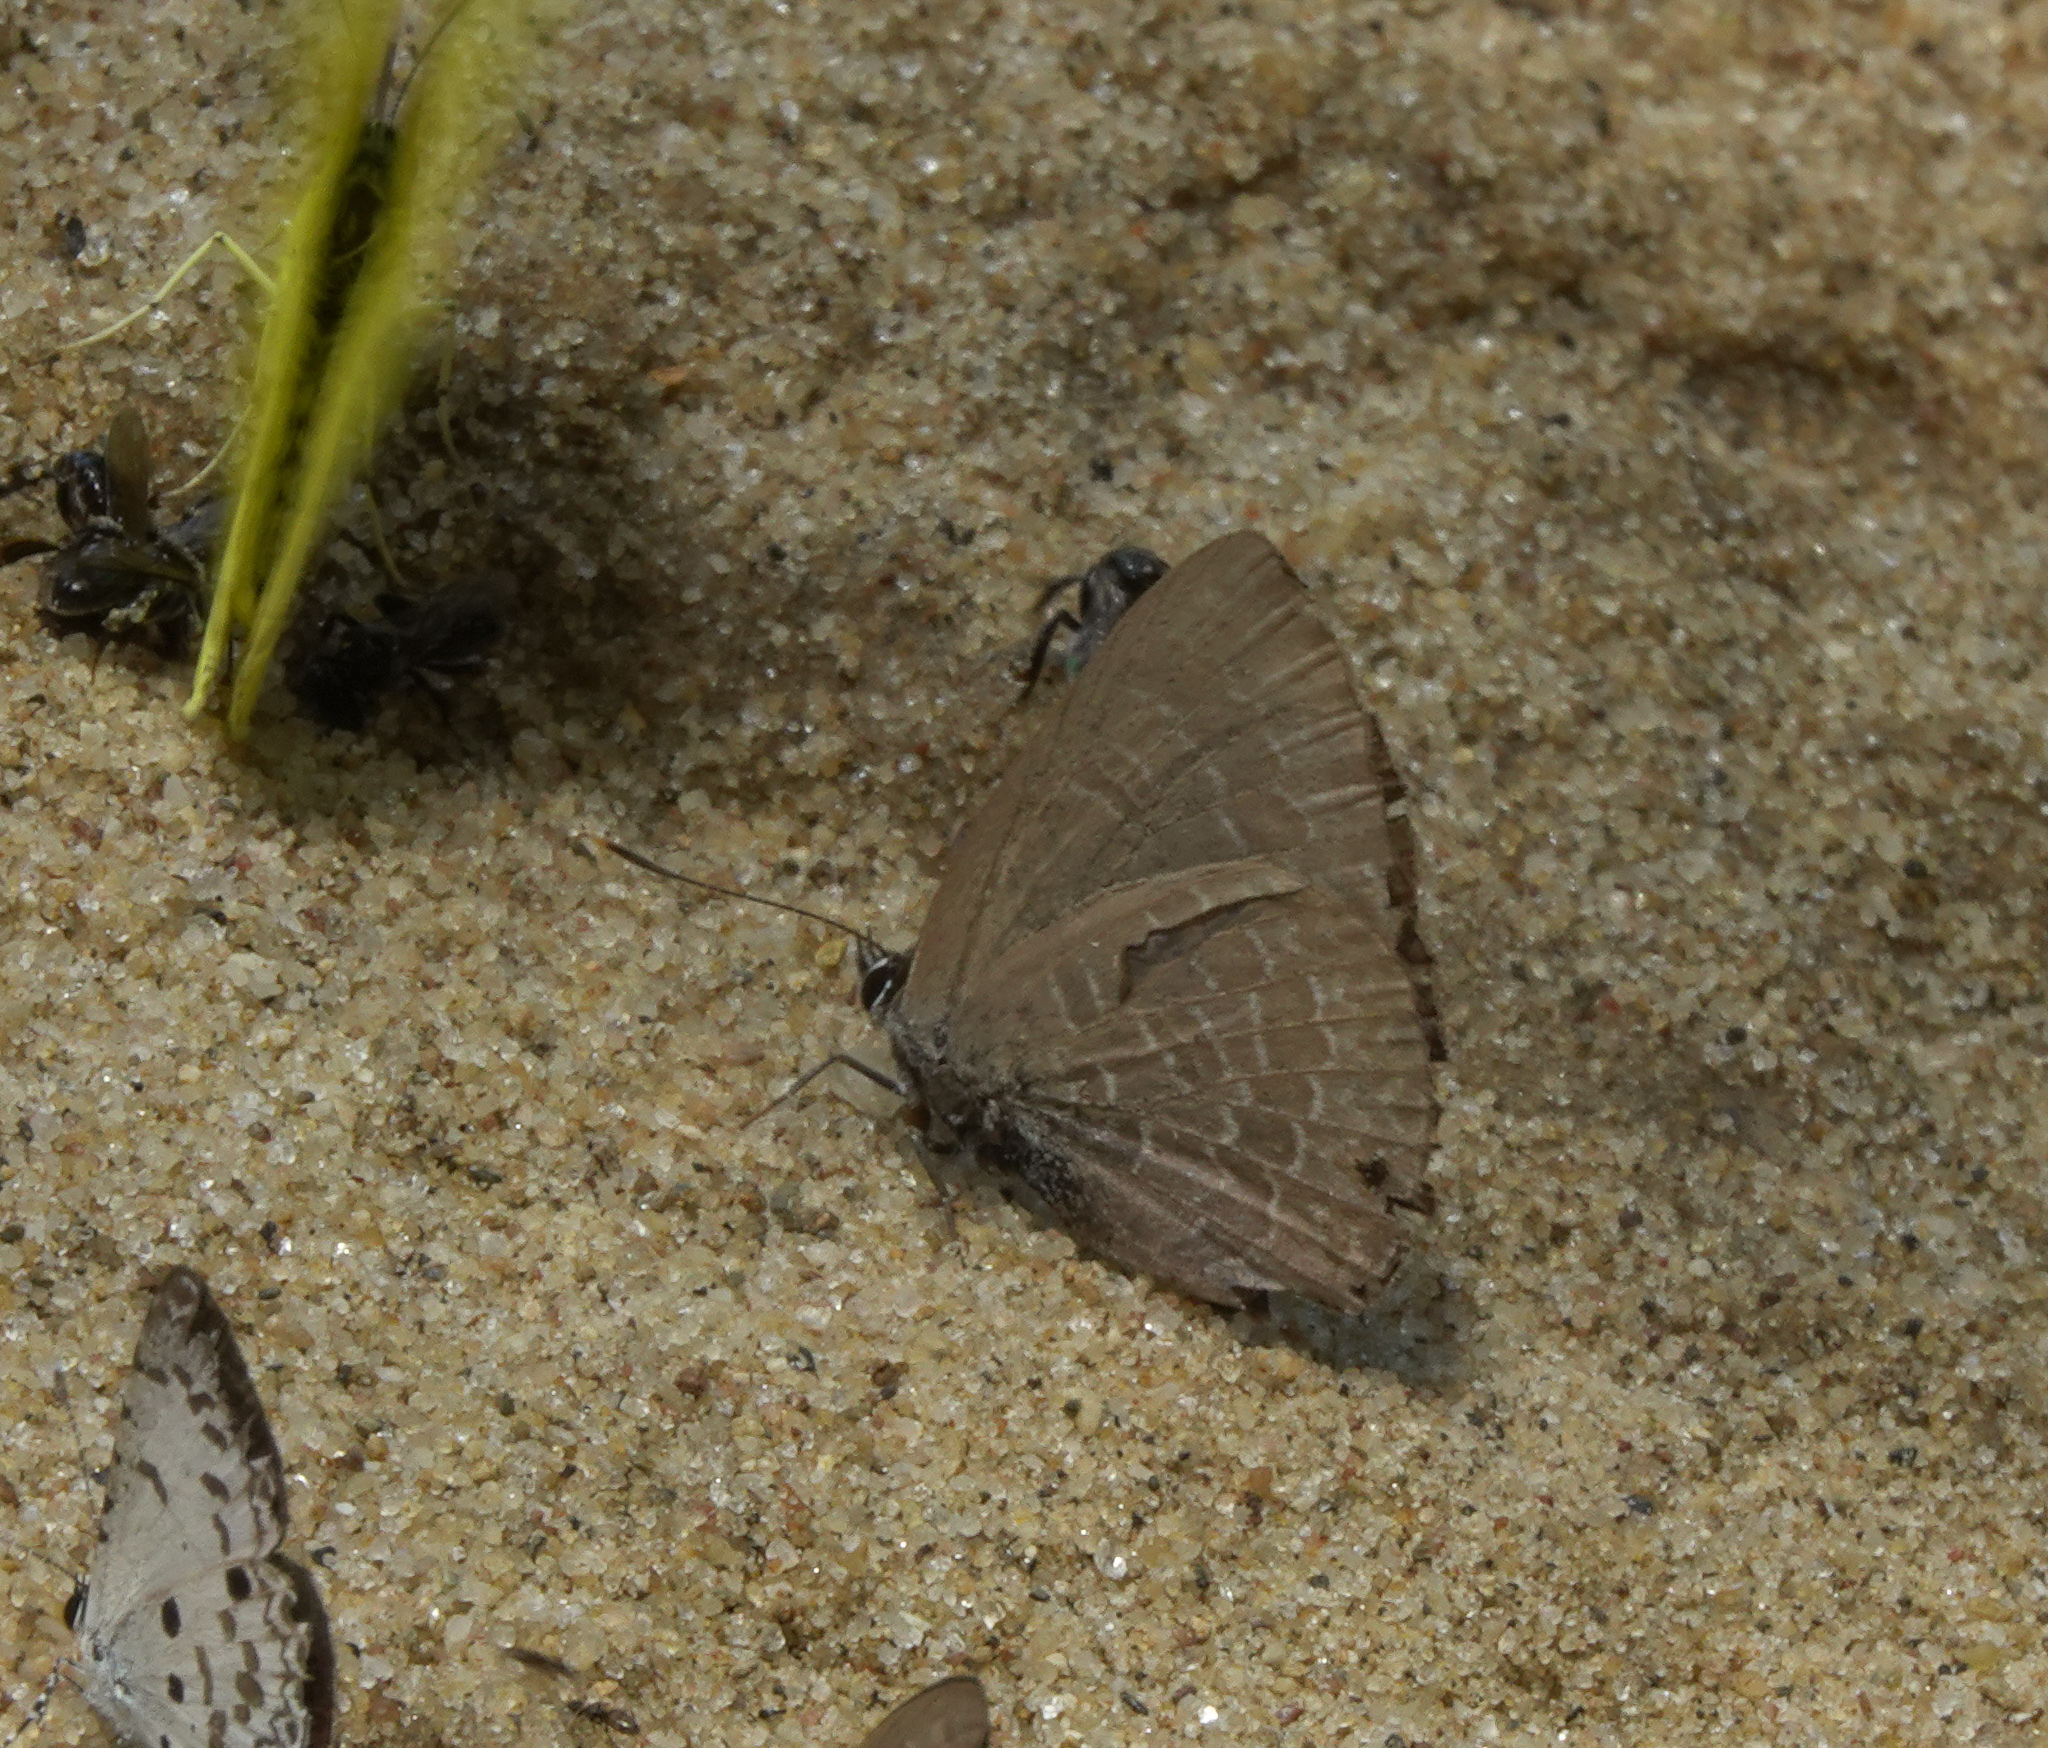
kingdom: Animalia
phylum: Arthropoda
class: Insecta
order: Lepidoptera
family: Lycaenidae
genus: Anthene
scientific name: Anthene emolus
